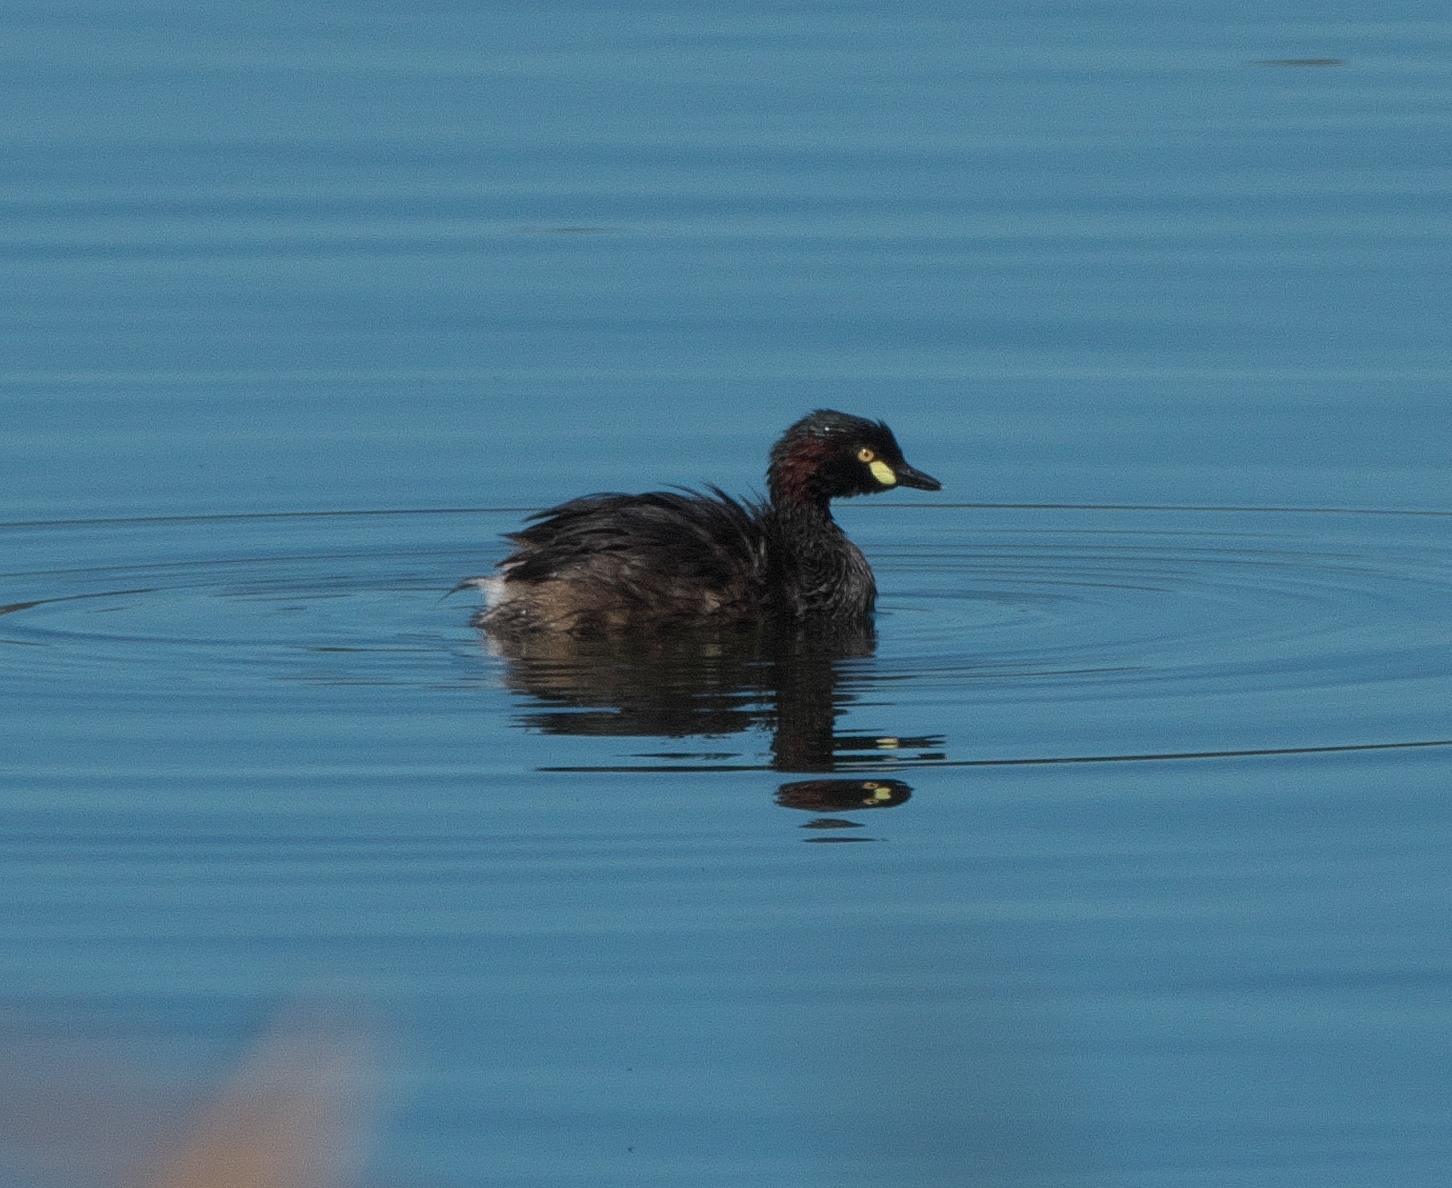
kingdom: Animalia
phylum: Chordata
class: Aves
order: Podicipediformes
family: Podicipedidae
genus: Tachybaptus
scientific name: Tachybaptus novaehollandiae
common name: Australasian grebe
